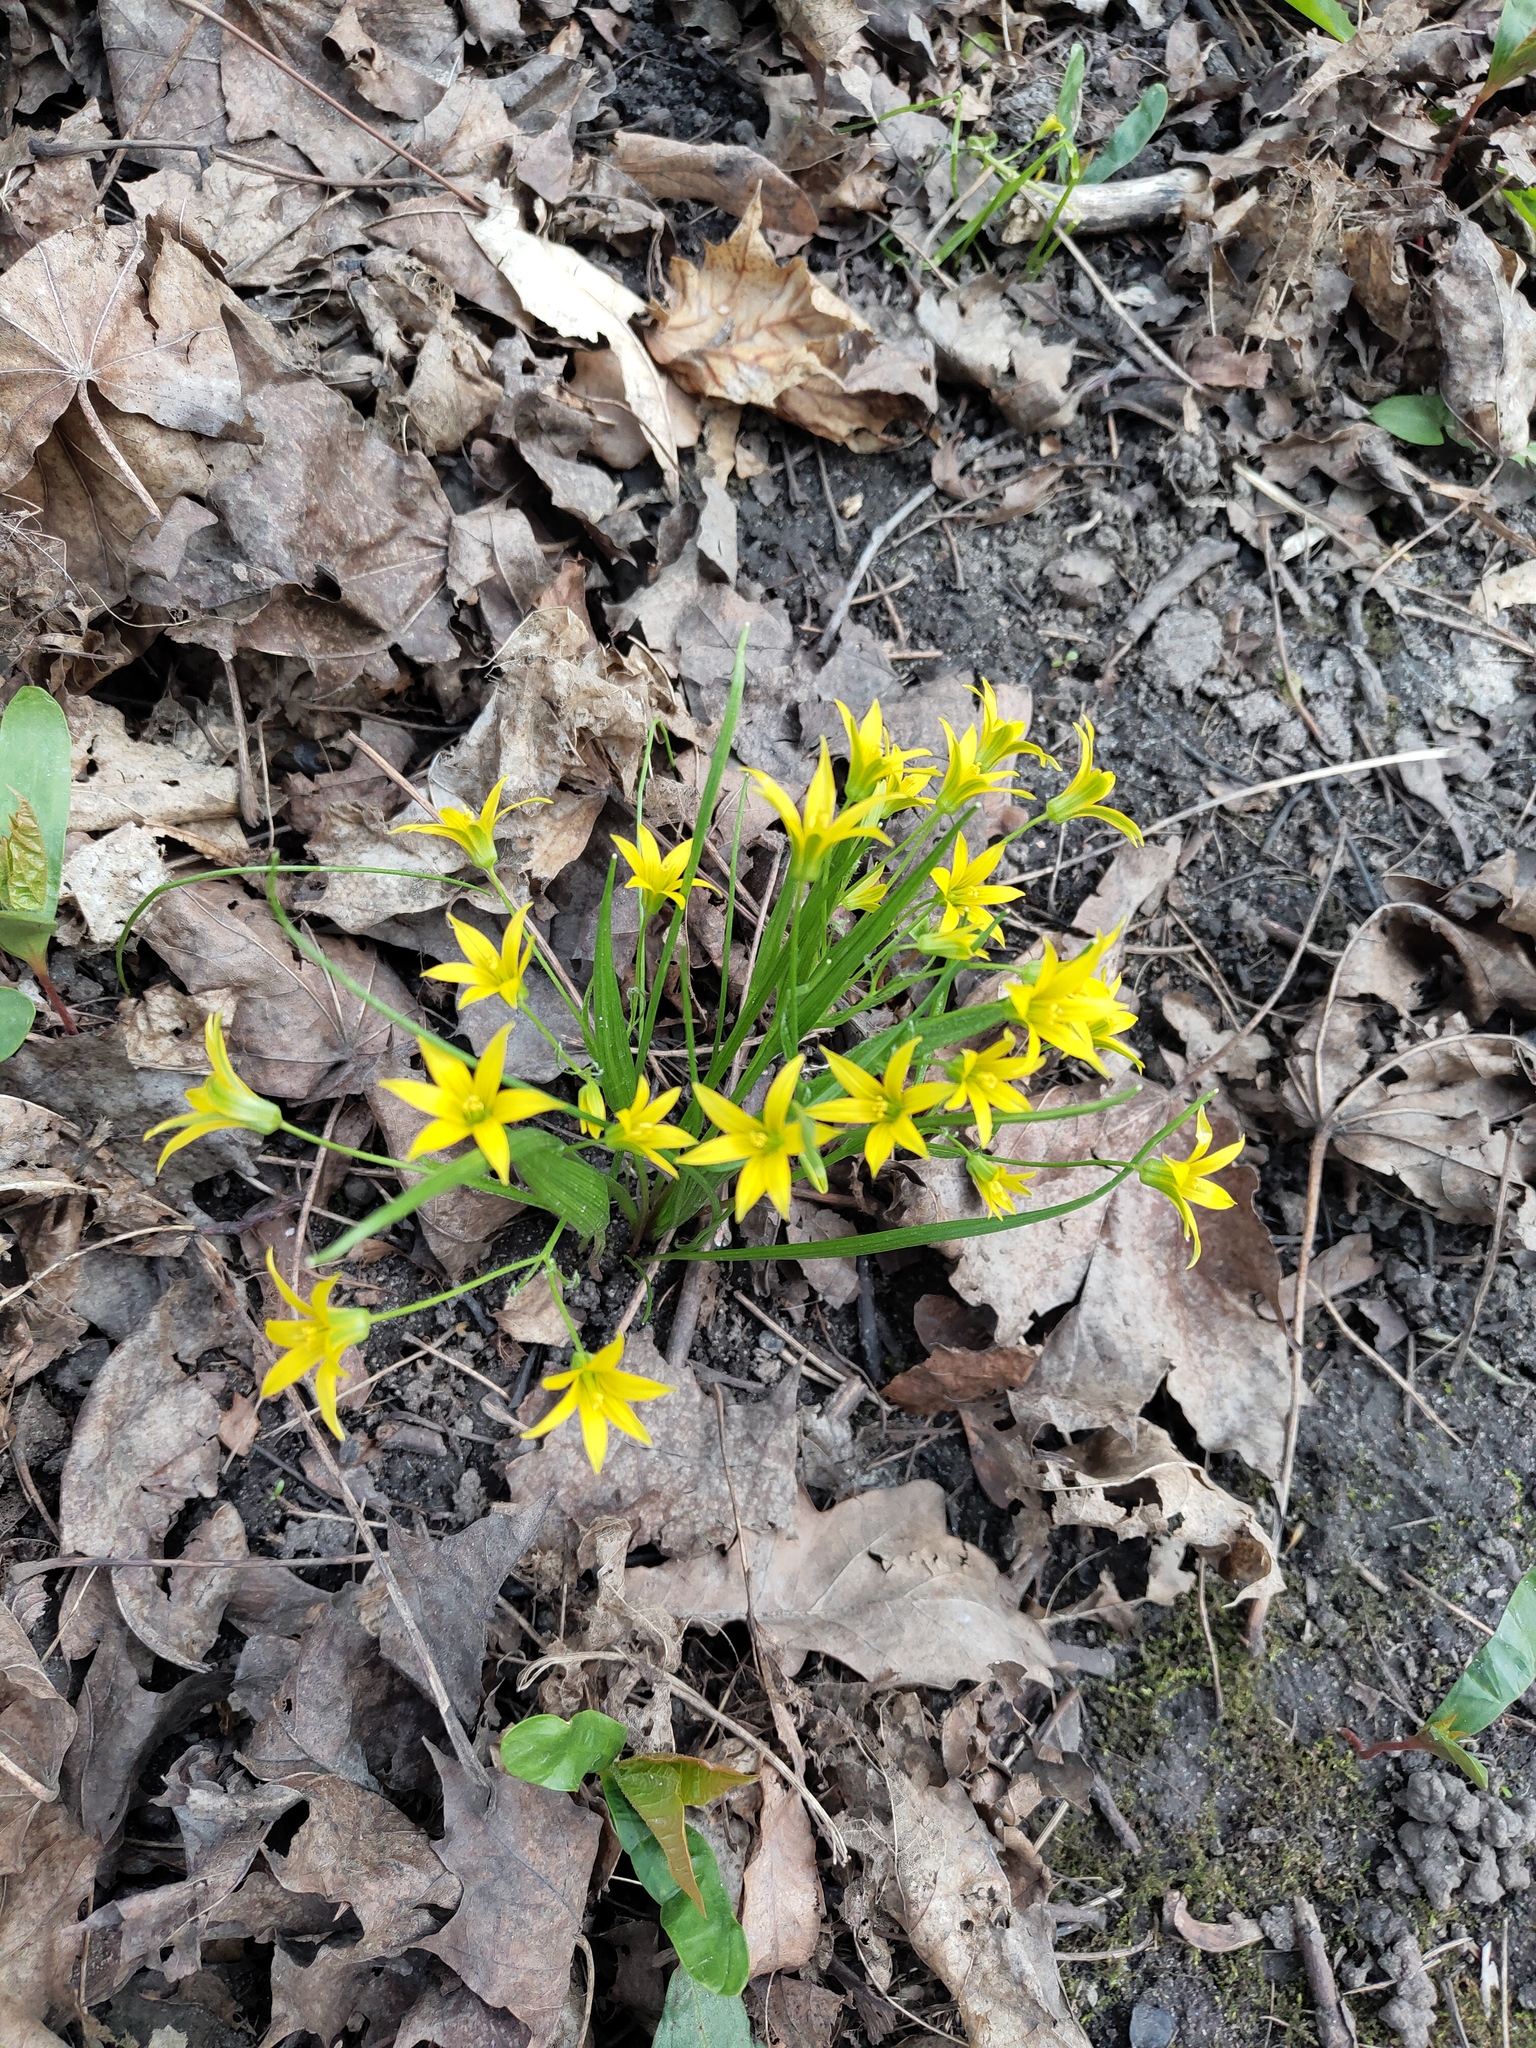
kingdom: Plantae
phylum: Tracheophyta
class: Liliopsida
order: Liliales
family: Liliaceae
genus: Gagea
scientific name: Gagea minima
